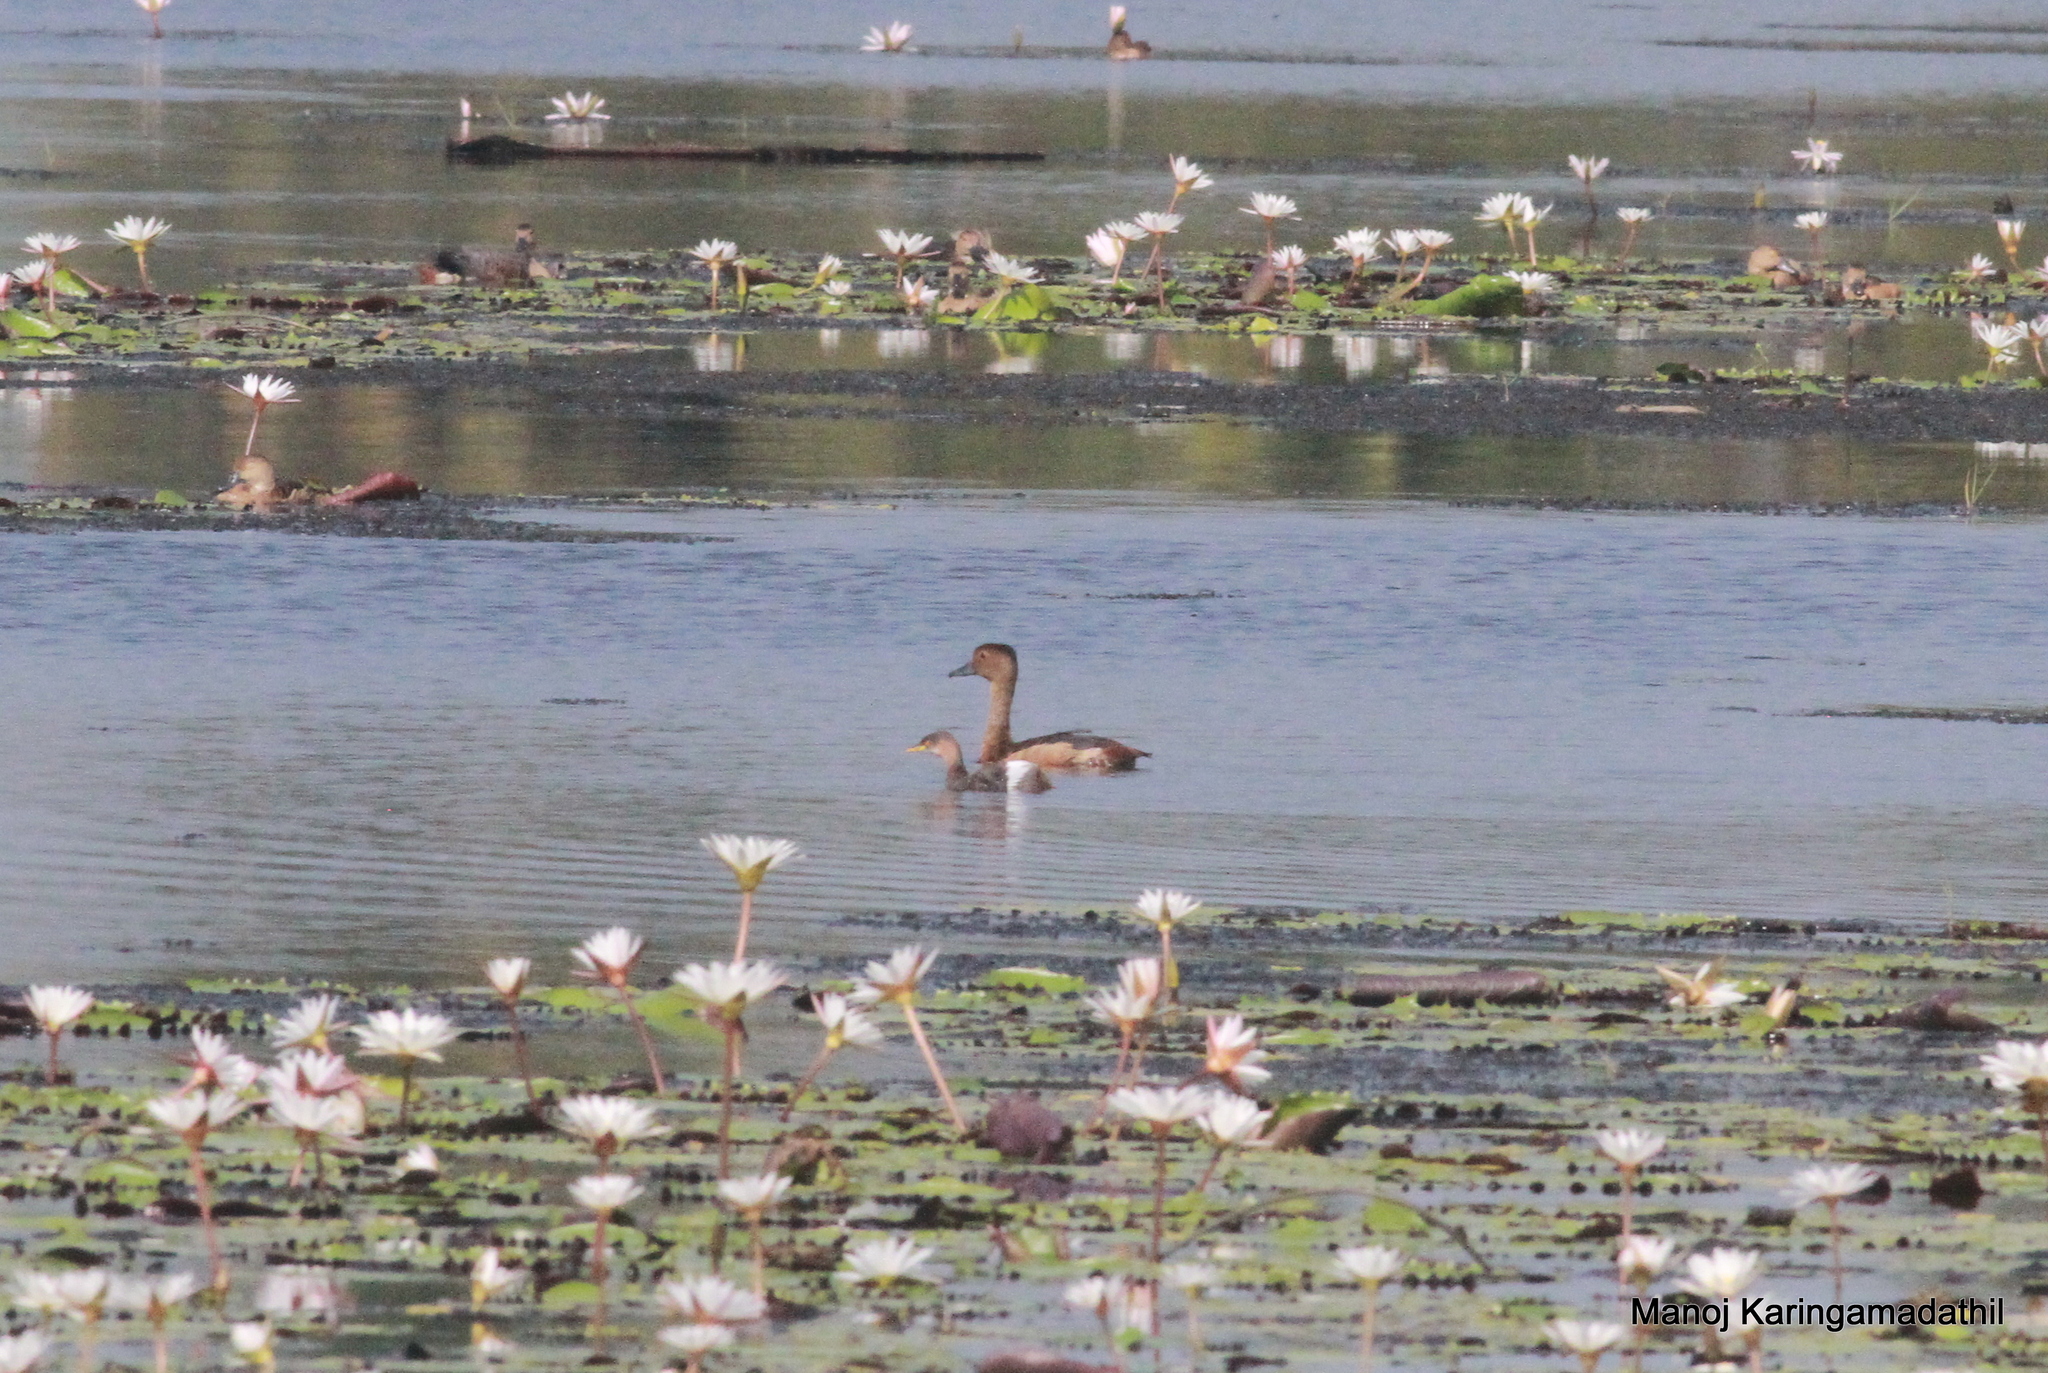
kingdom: Animalia
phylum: Chordata
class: Aves
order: Anseriformes
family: Anatidae
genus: Dendrocygna
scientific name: Dendrocygna javanica
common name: Lesser whistling-duck
